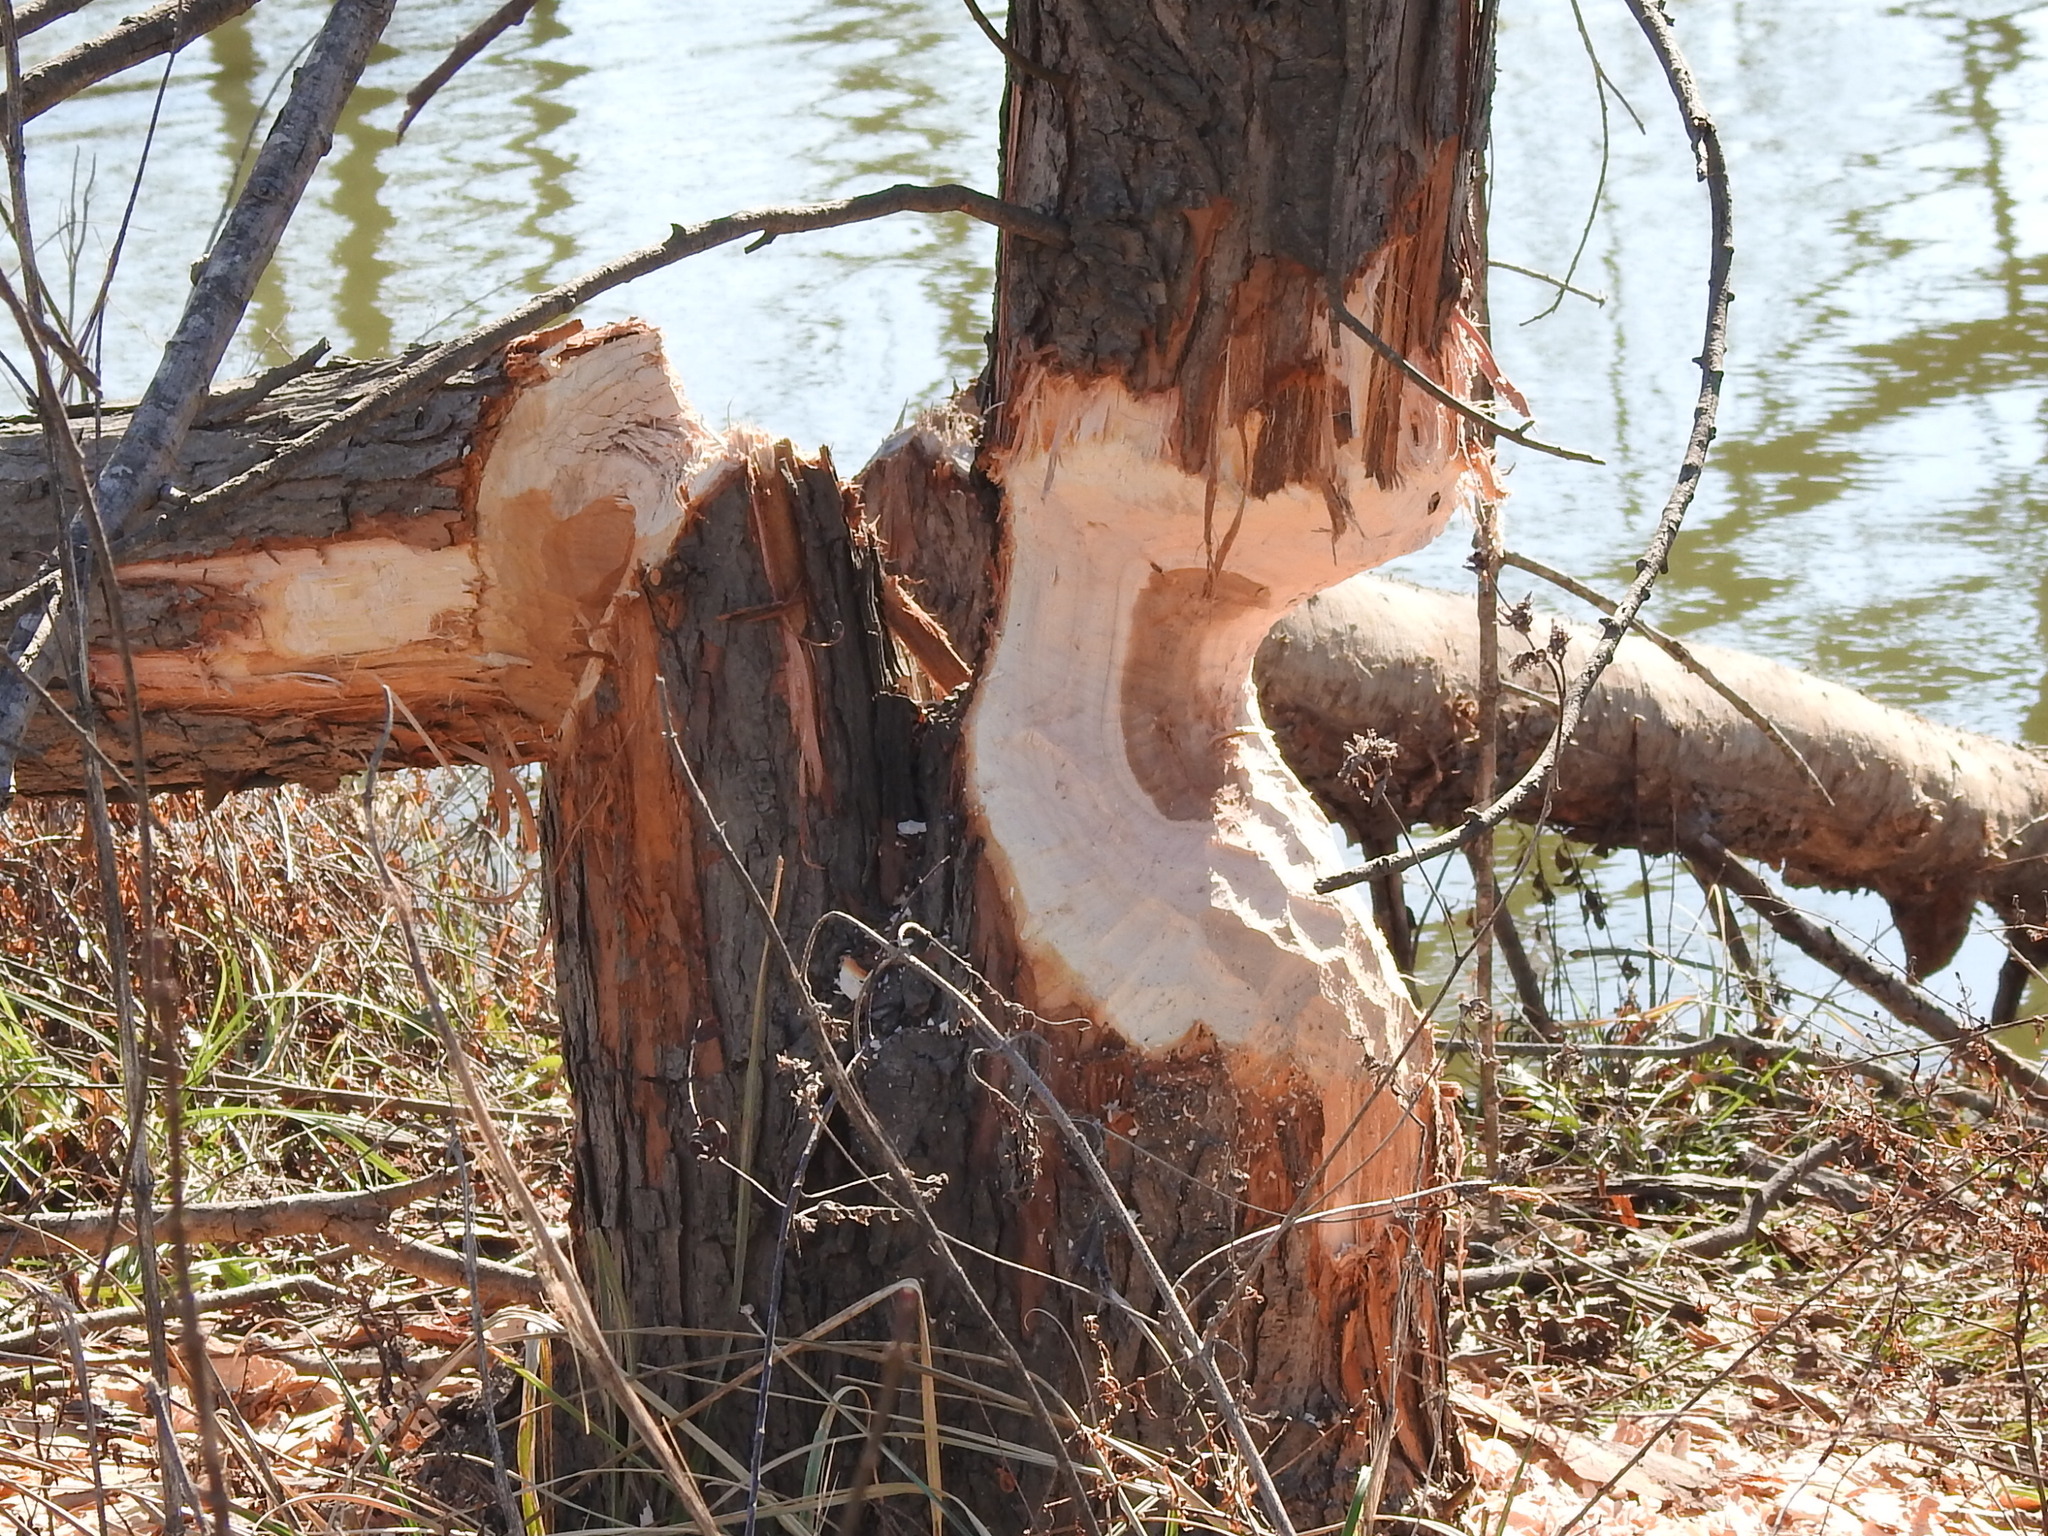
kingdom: Animalia
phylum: Chordata
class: Mammalia
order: Rodentia
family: Castoridae
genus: Castor
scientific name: Castor canadensis
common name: American beaver
